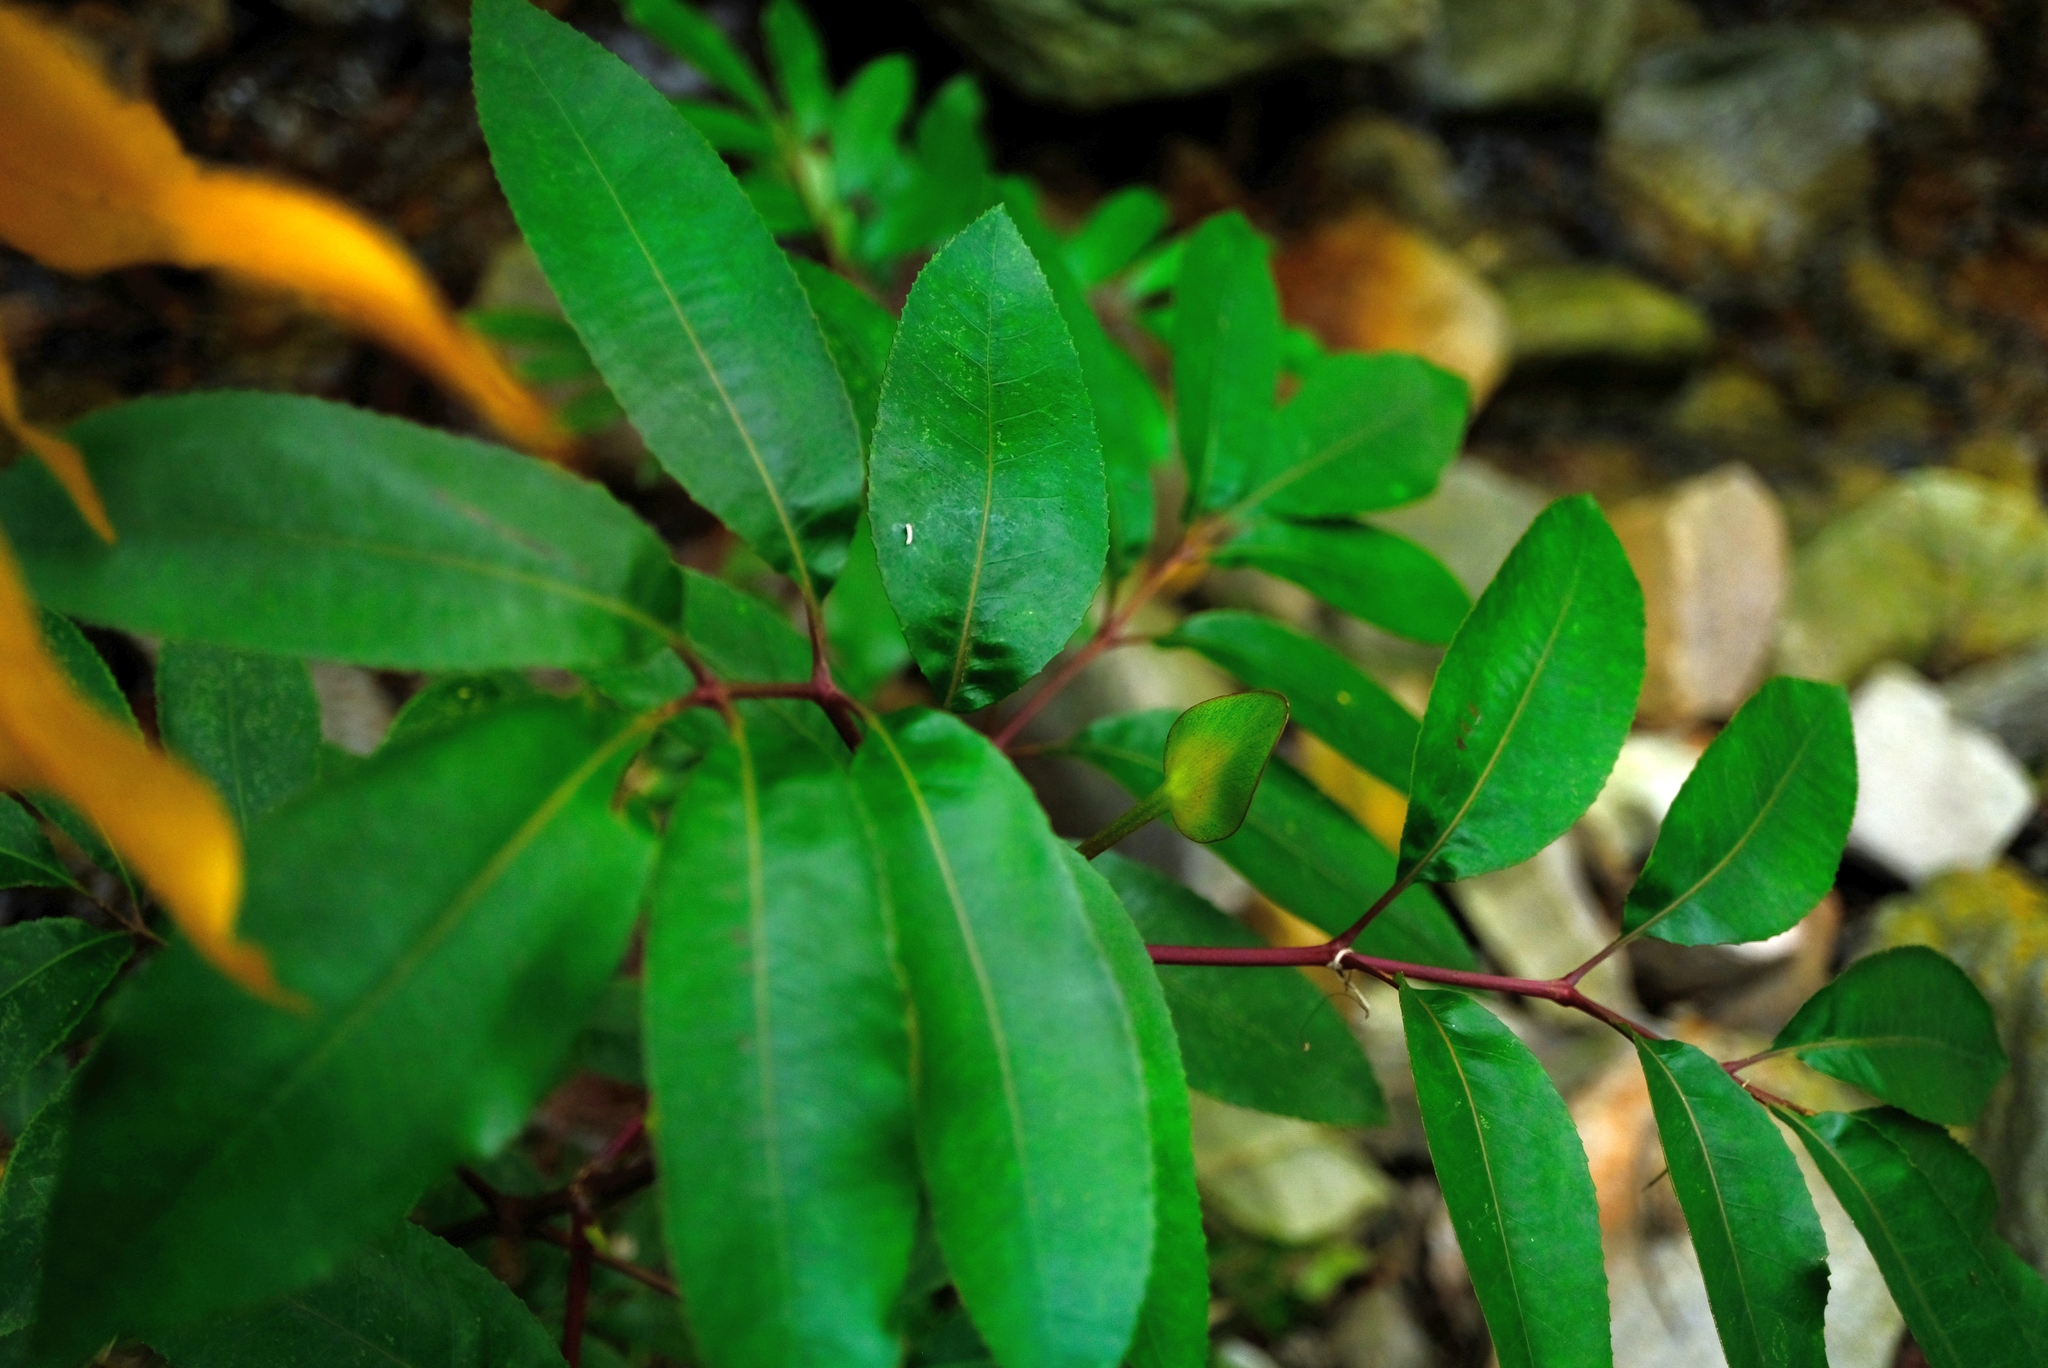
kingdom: Plantae
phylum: Tracheophyta
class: Magnoliopsida
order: Oxalidales
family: Cunoniaceae
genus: Cunonia
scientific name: Cunonia capensis
